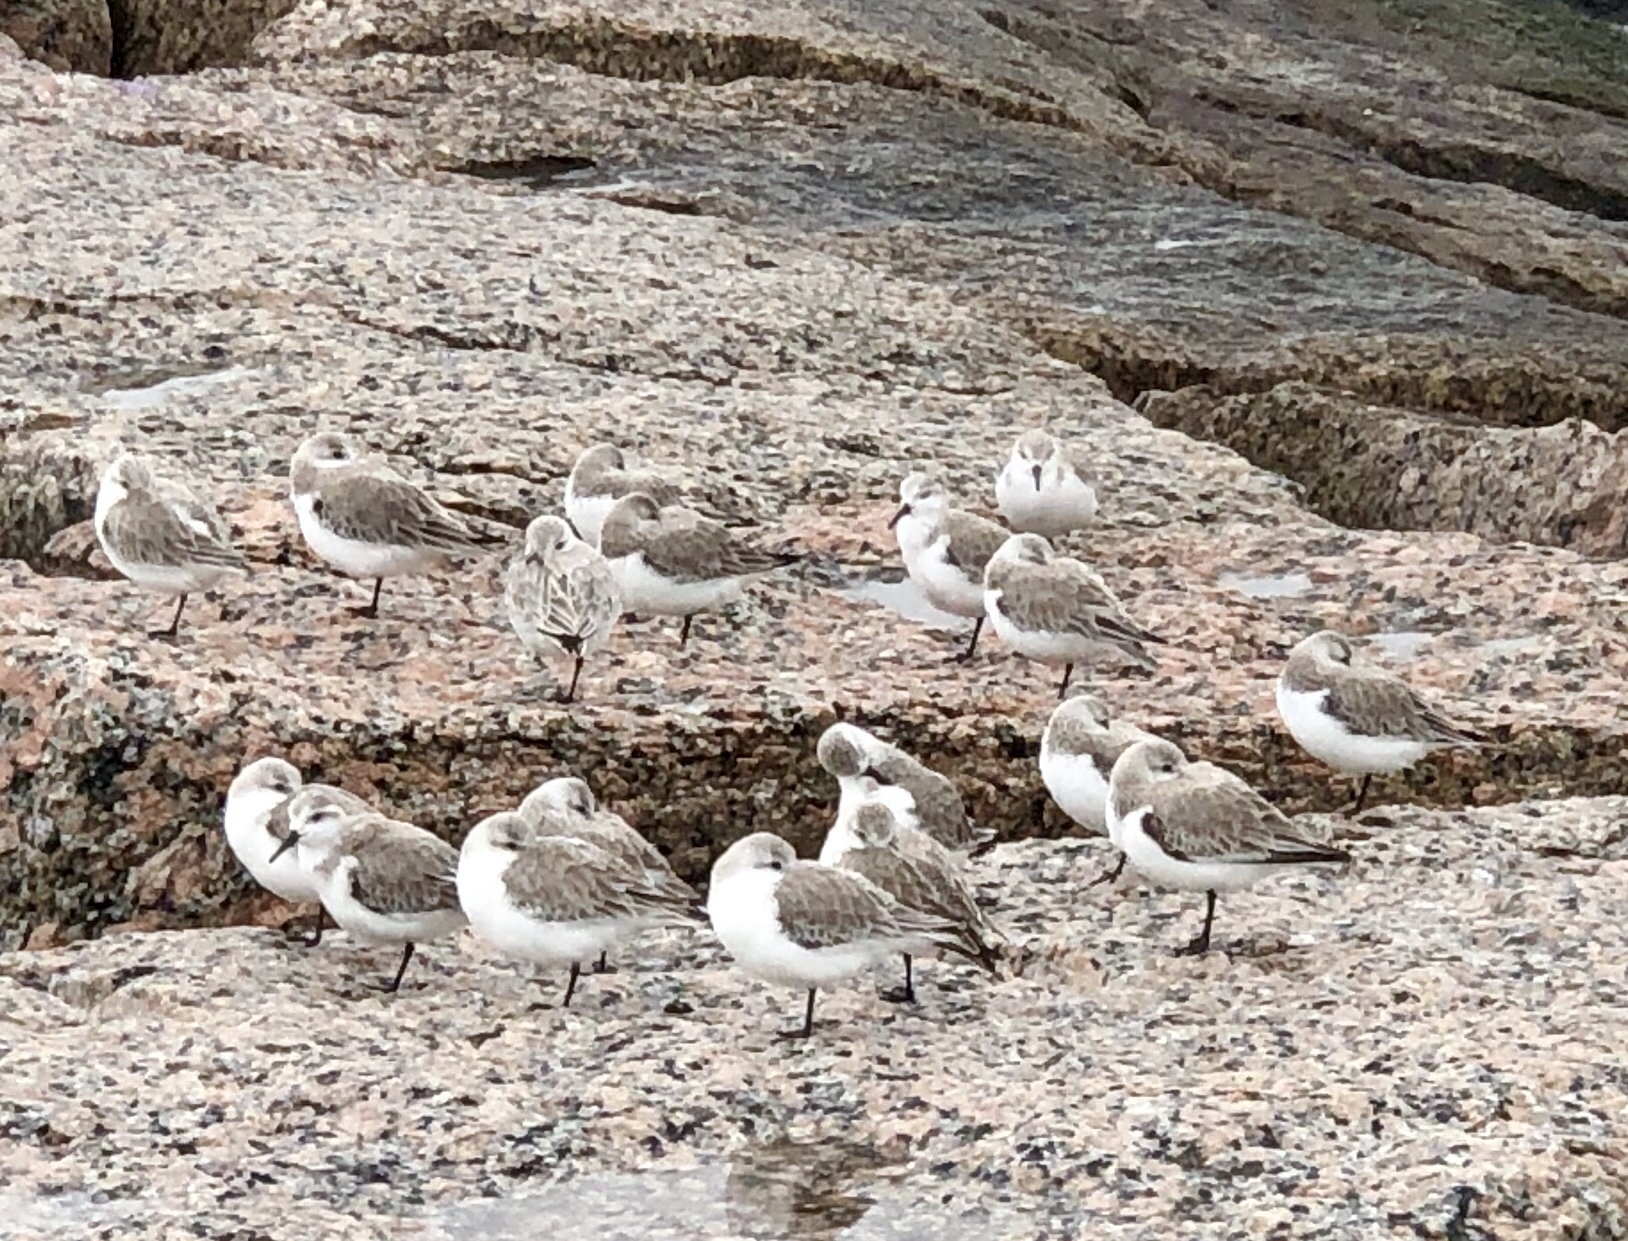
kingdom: Animalia
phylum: Chordata
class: Aves
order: Charadriiformes
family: Scolopacidae
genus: Calidris
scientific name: Calidris alba
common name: Sanderling
